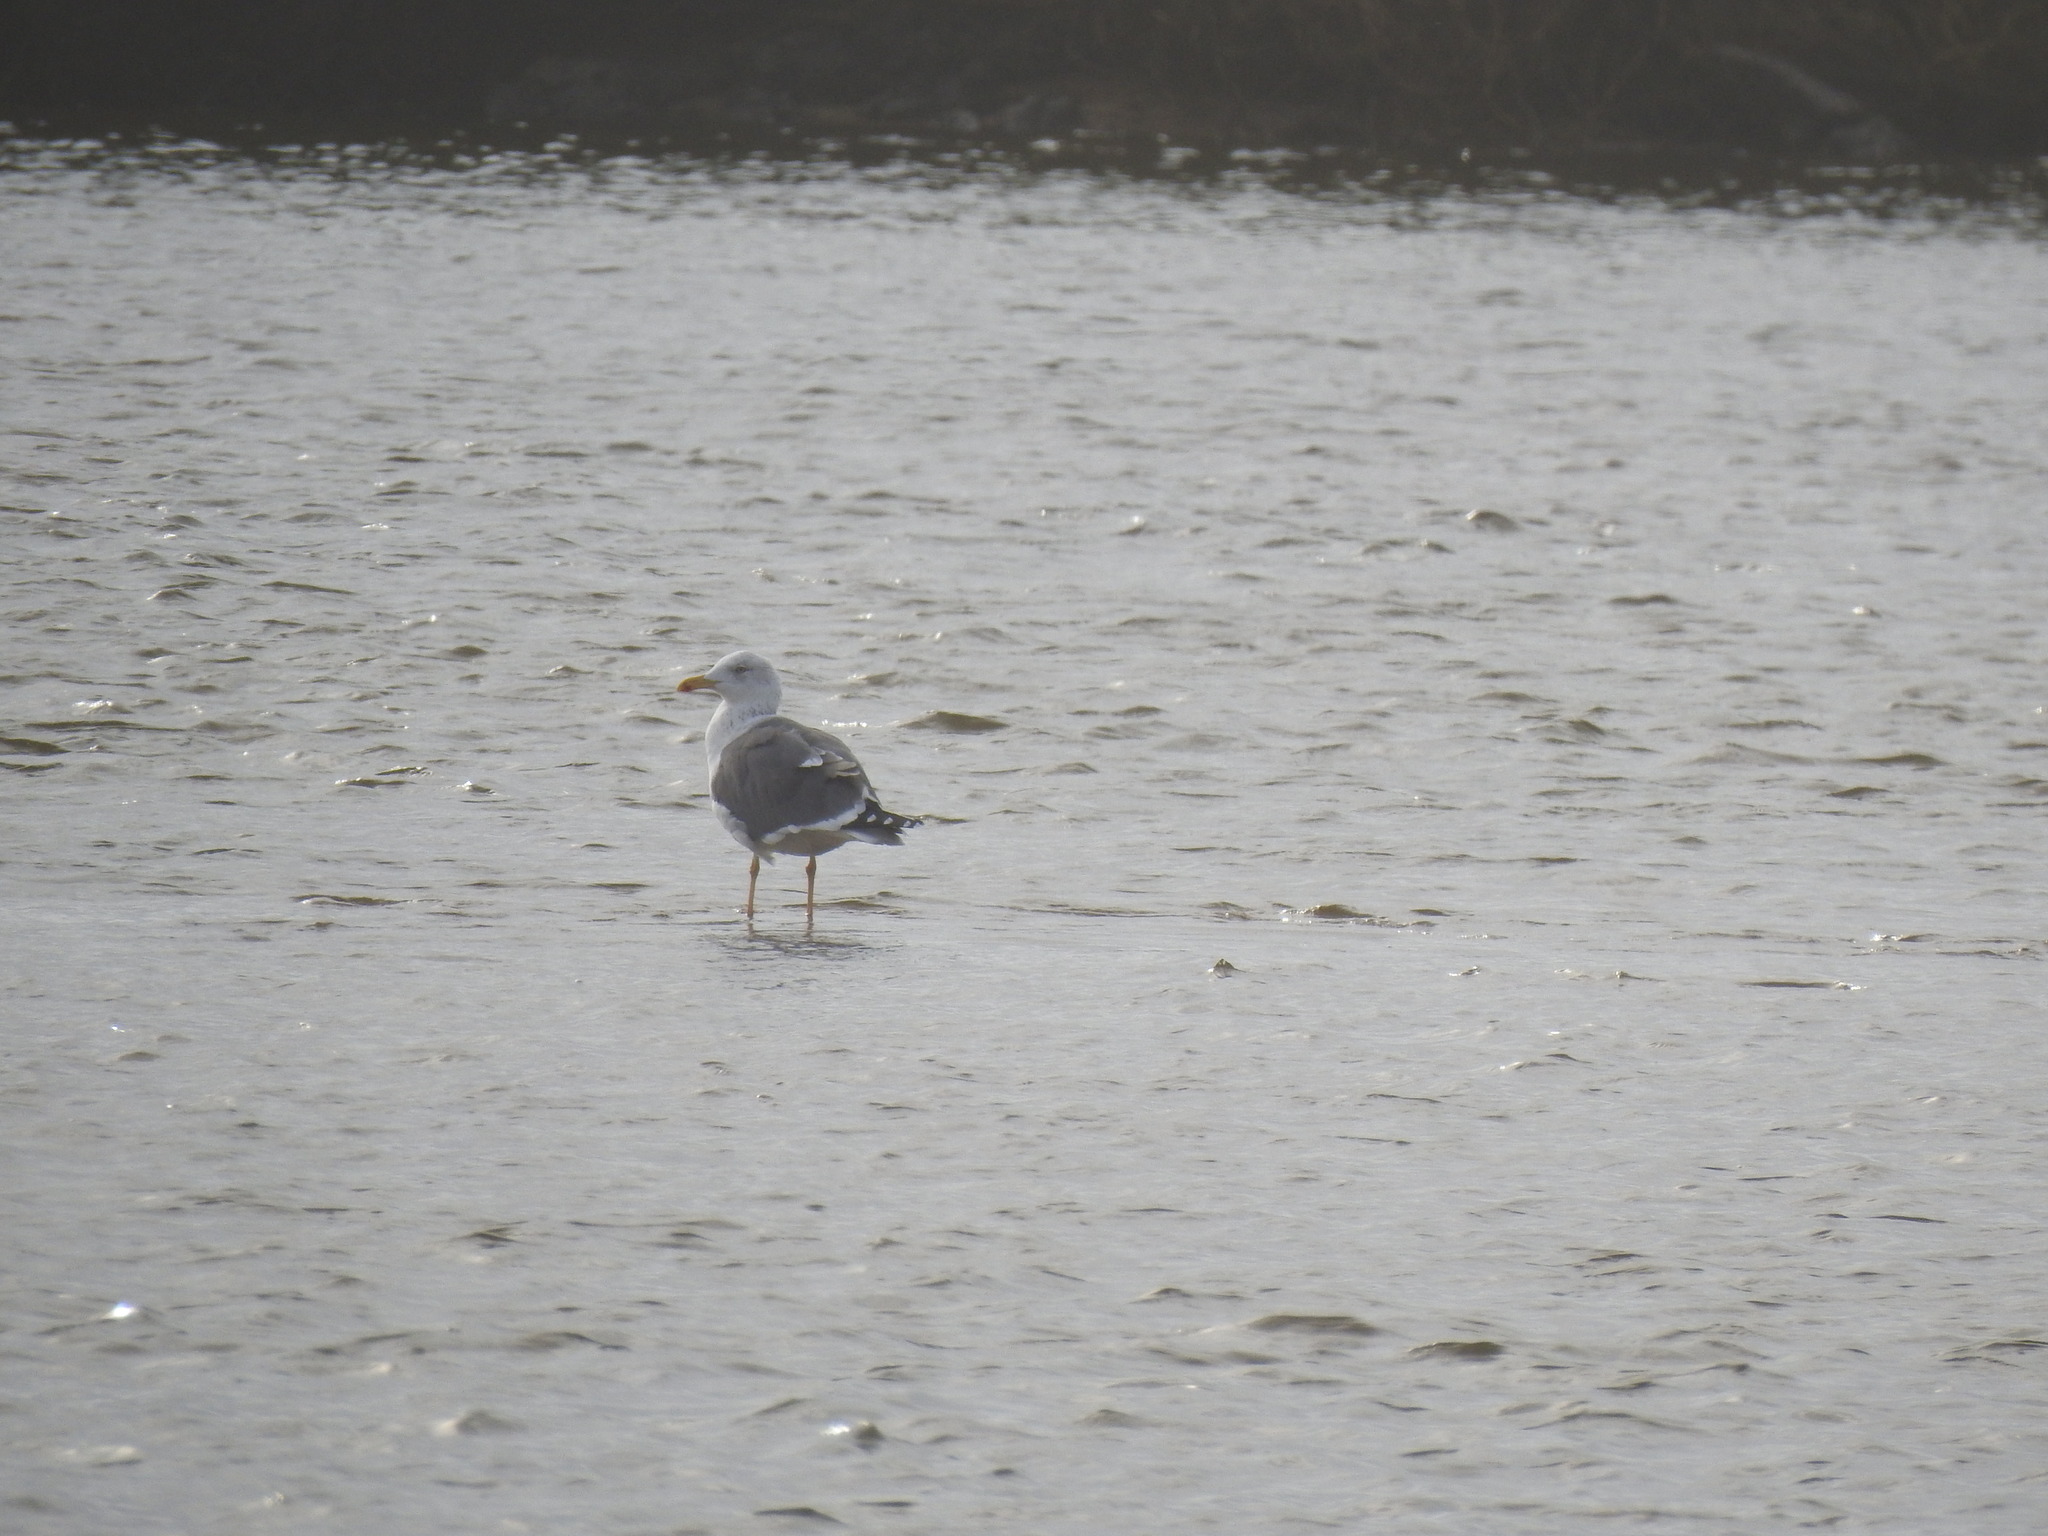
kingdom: Animalia
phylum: Chordata
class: Aves
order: Charadriiformes
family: Laridae
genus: Larus
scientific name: Larus michahellis
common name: Yellow-legged gull
